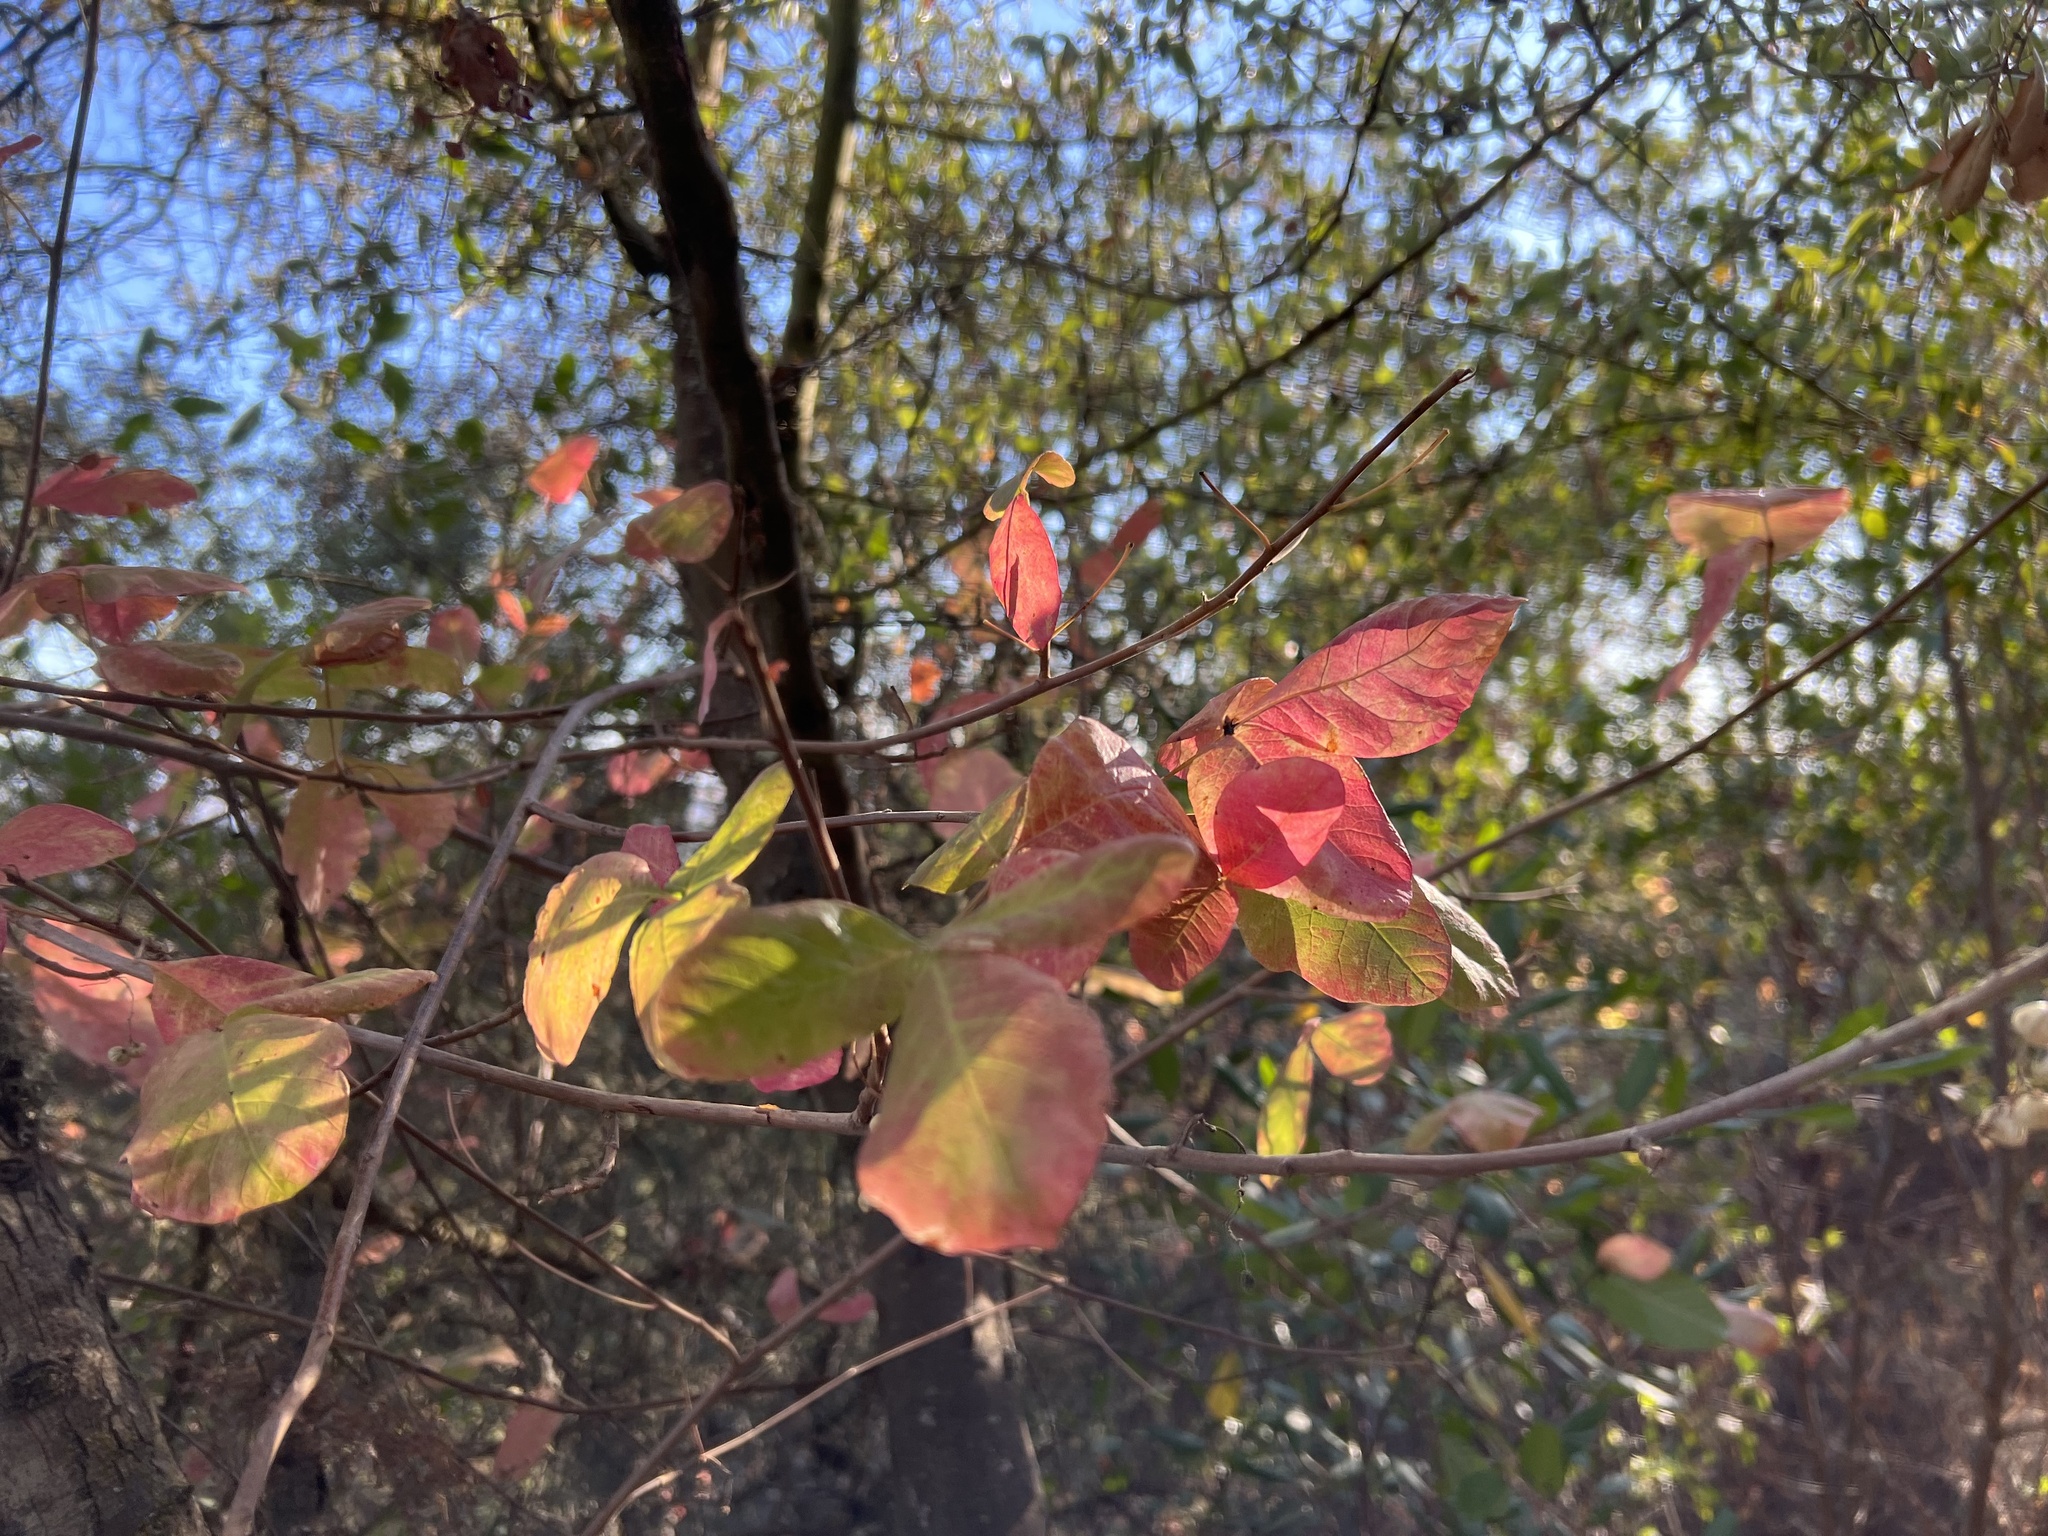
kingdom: Plantae
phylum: Tracheophyta
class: Magnoliopsida
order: Sapindales
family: Anacardiaceae
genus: Toxicodendron
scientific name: Toxicodendron diversilobum
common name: Pacific poison-oak
